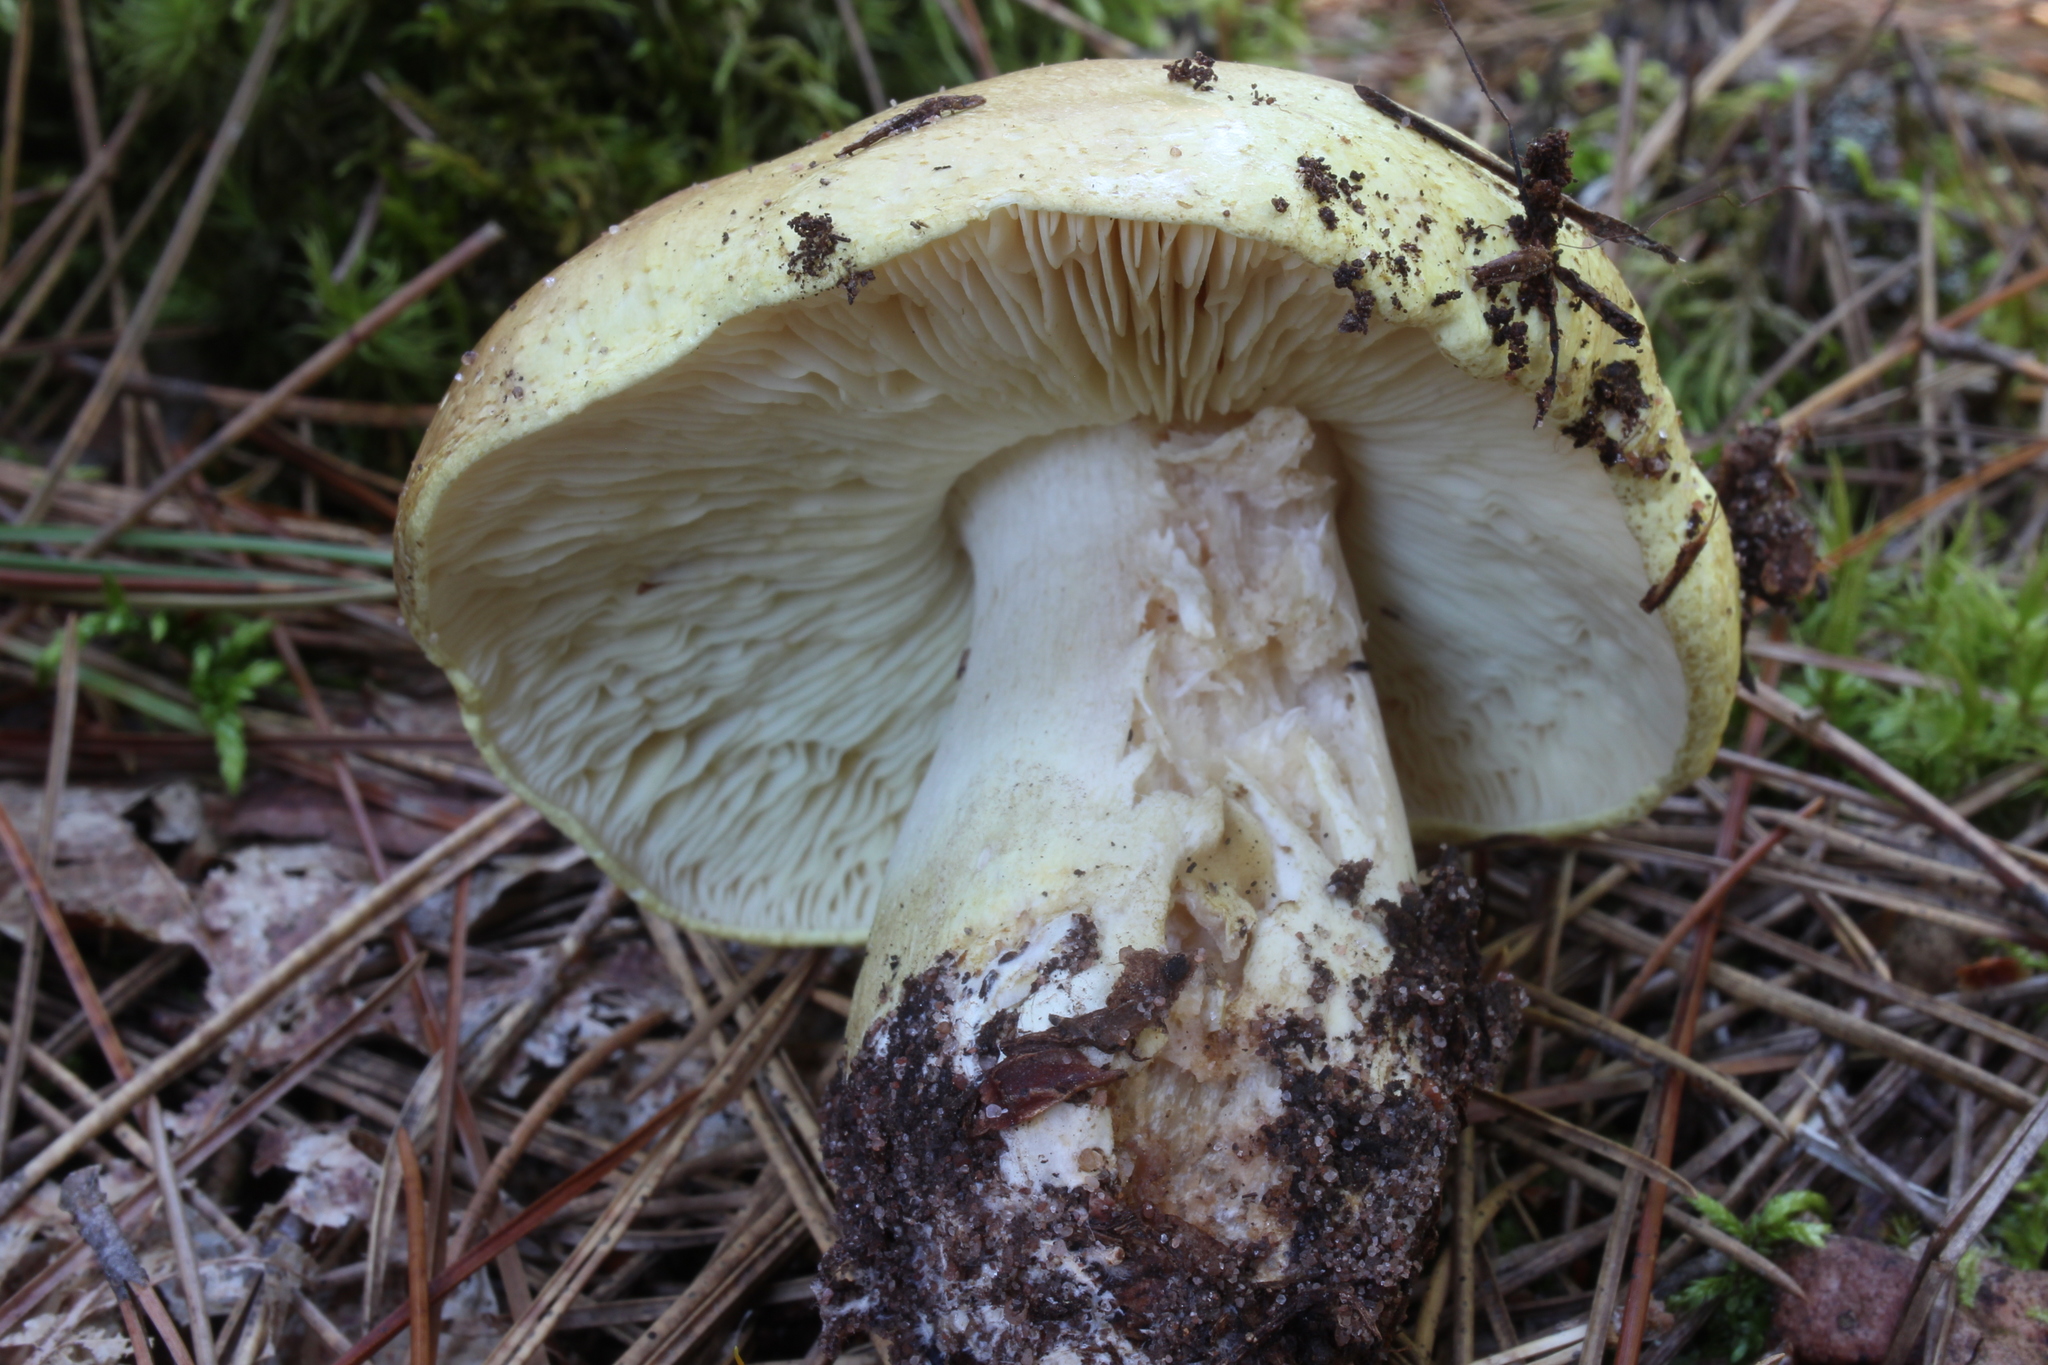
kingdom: Fungi
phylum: Basidiomycota
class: Agaricomycetes
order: Agaricales
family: Tricholomataceae
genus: Tricholoma
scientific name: Tricholoma equestre
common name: Yellow knight
